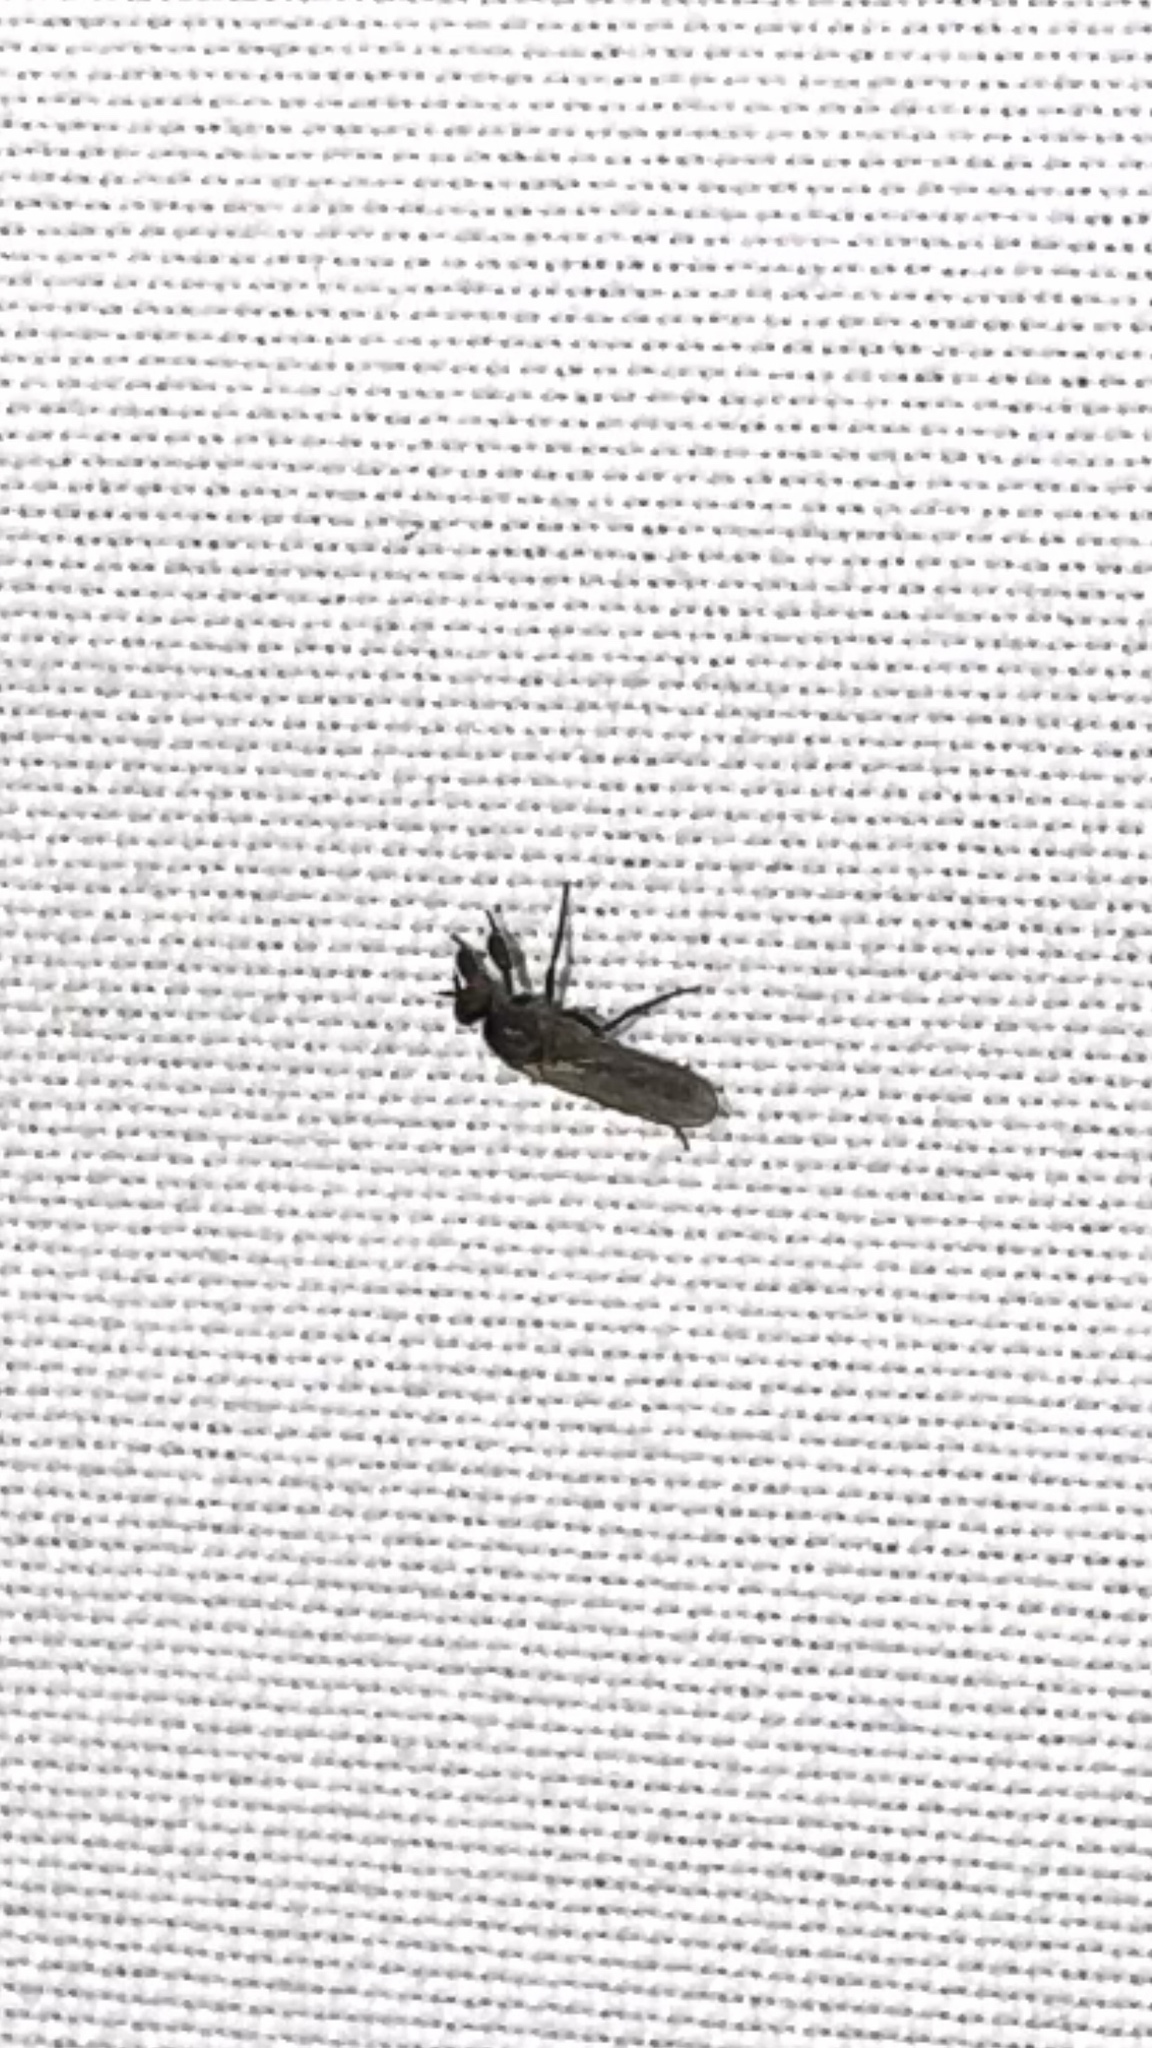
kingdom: Animalia
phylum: Arthropoda
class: Insecta
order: Diptera
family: Empididae
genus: Hilara
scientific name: Hilara
